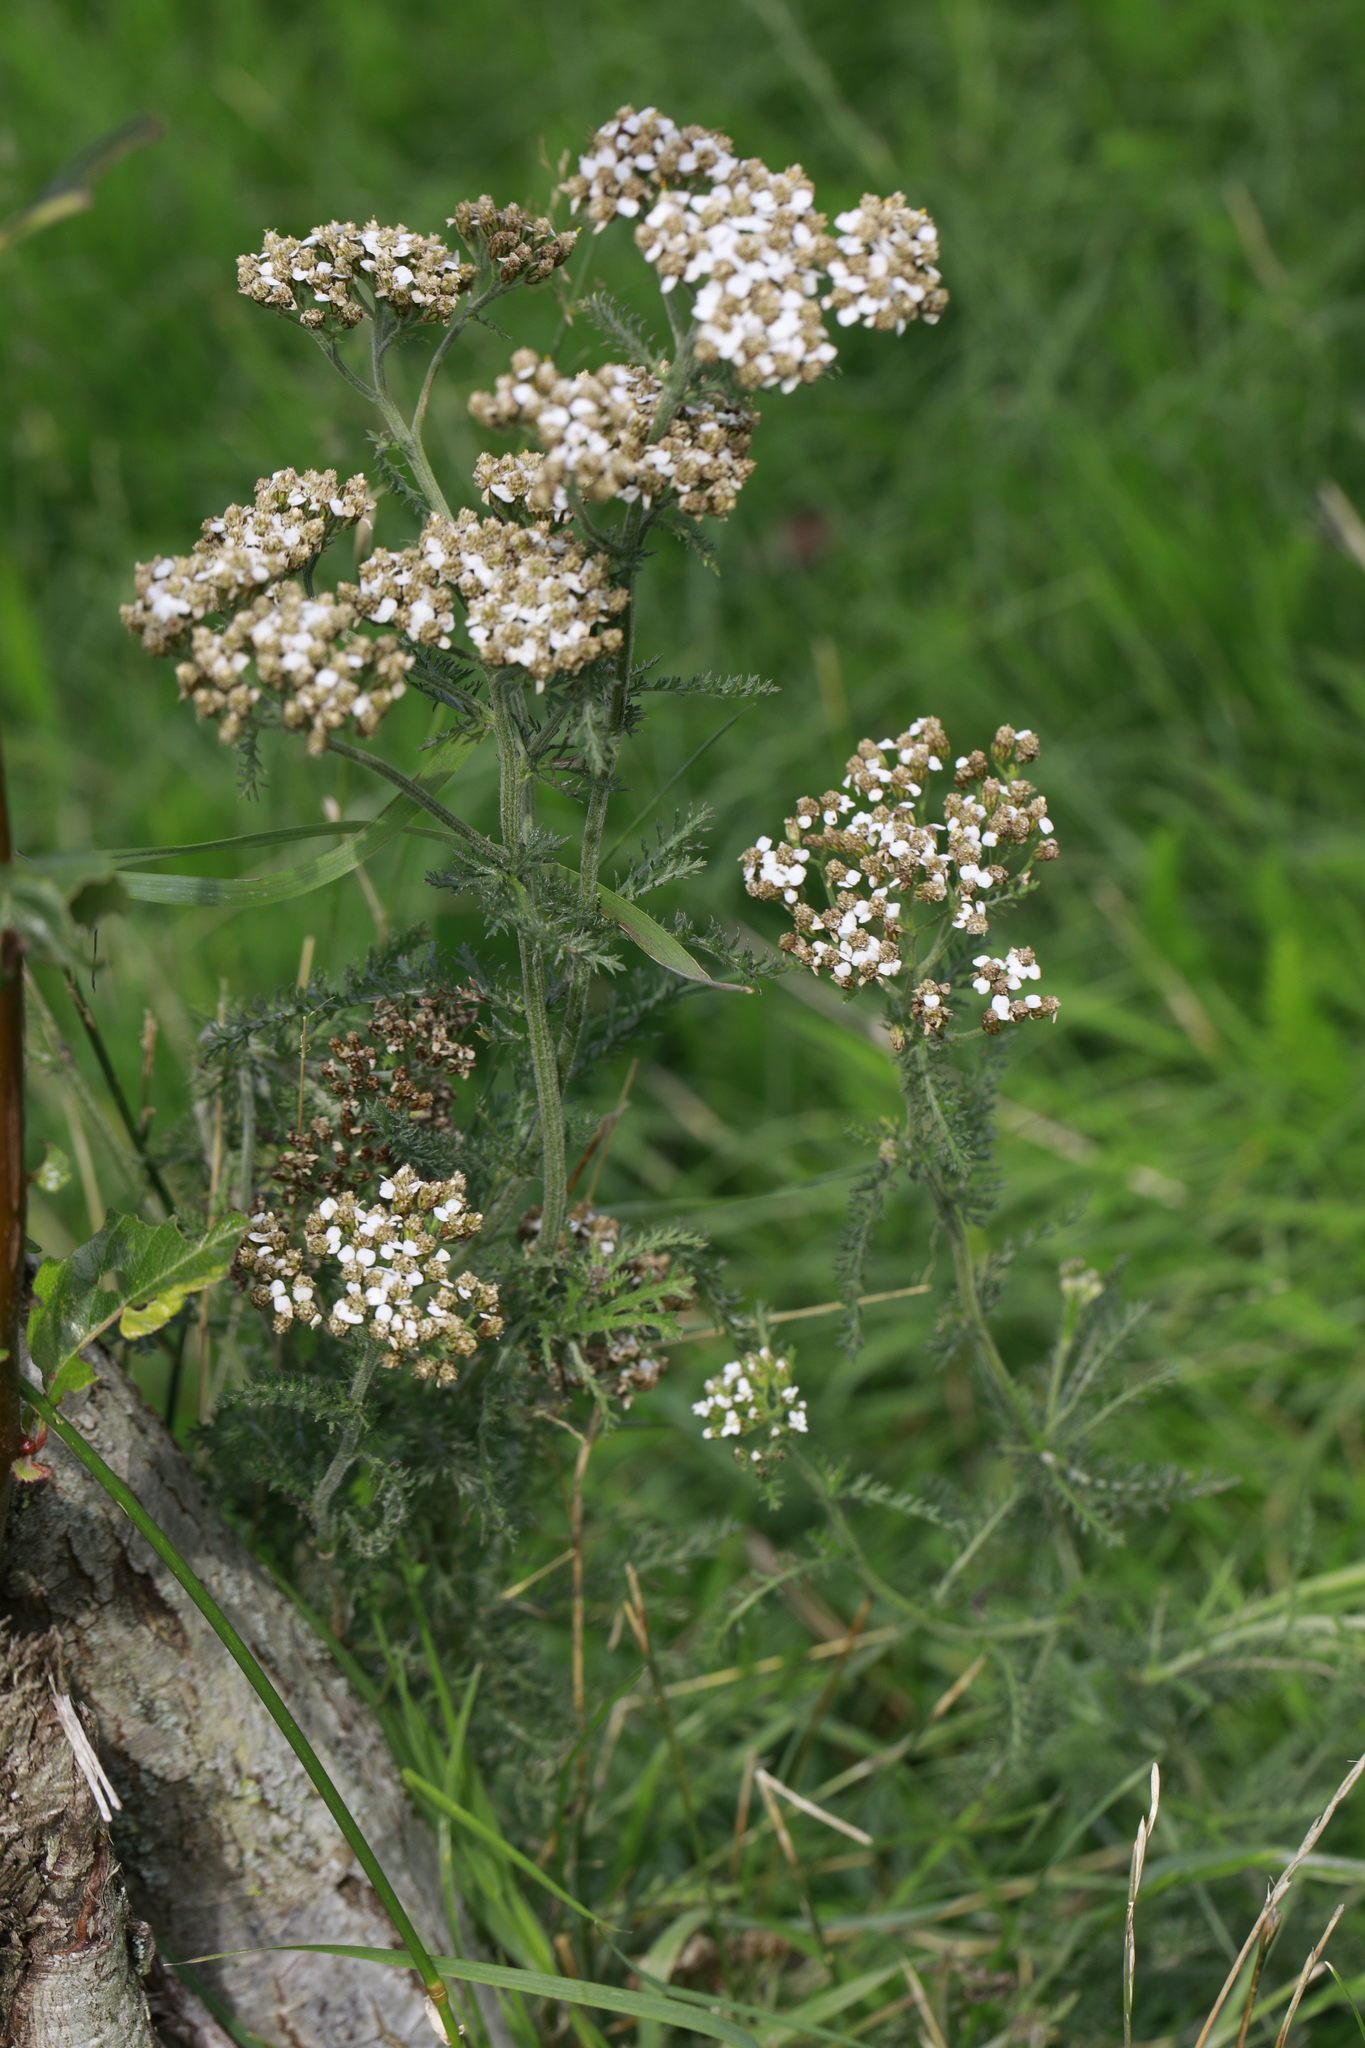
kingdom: Plantae
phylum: Tracheophyta
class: Magnoliopsida
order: Asterales
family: Asteraceae
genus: Achillea
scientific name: Achillea millefolium
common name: Yarrow
